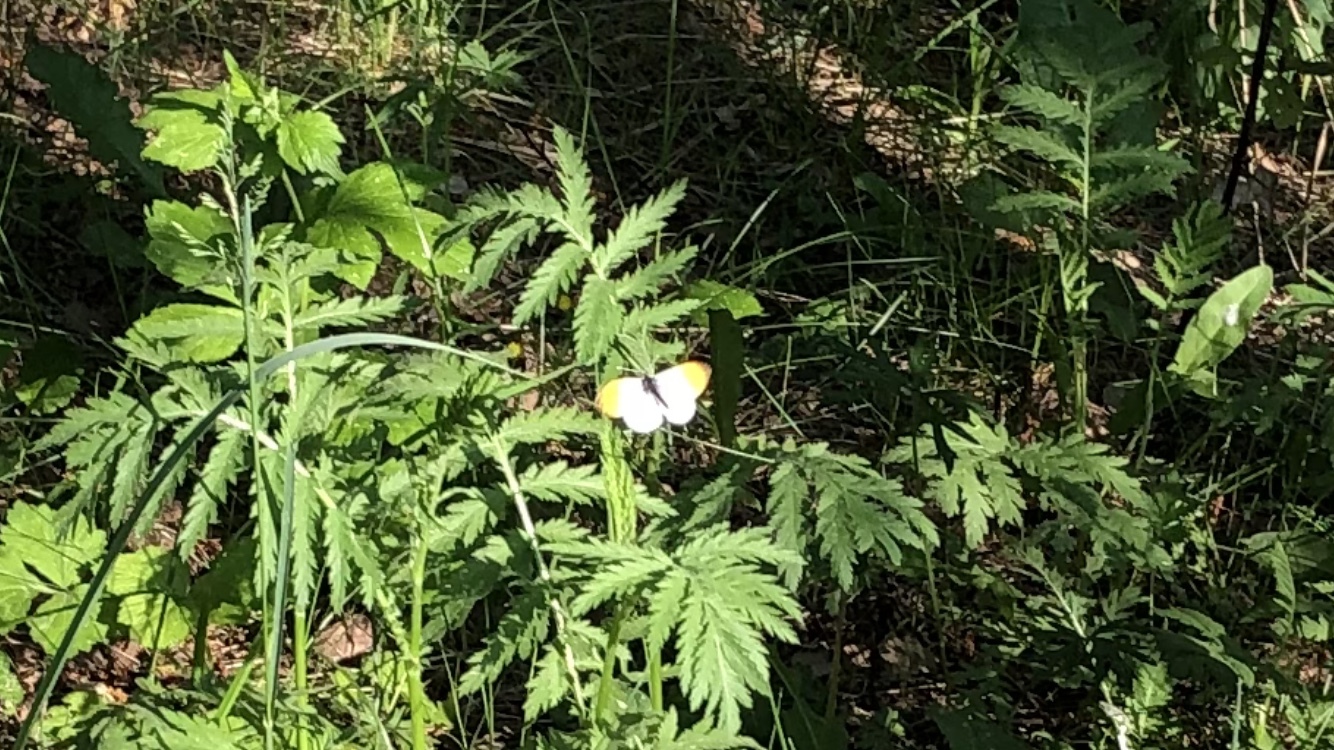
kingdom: Animalia
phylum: Arthropoda
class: Insecta
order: Lepidoptera
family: Pieridae
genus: Anthocharis
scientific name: Anthocharis cardamines
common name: Orange-tip
